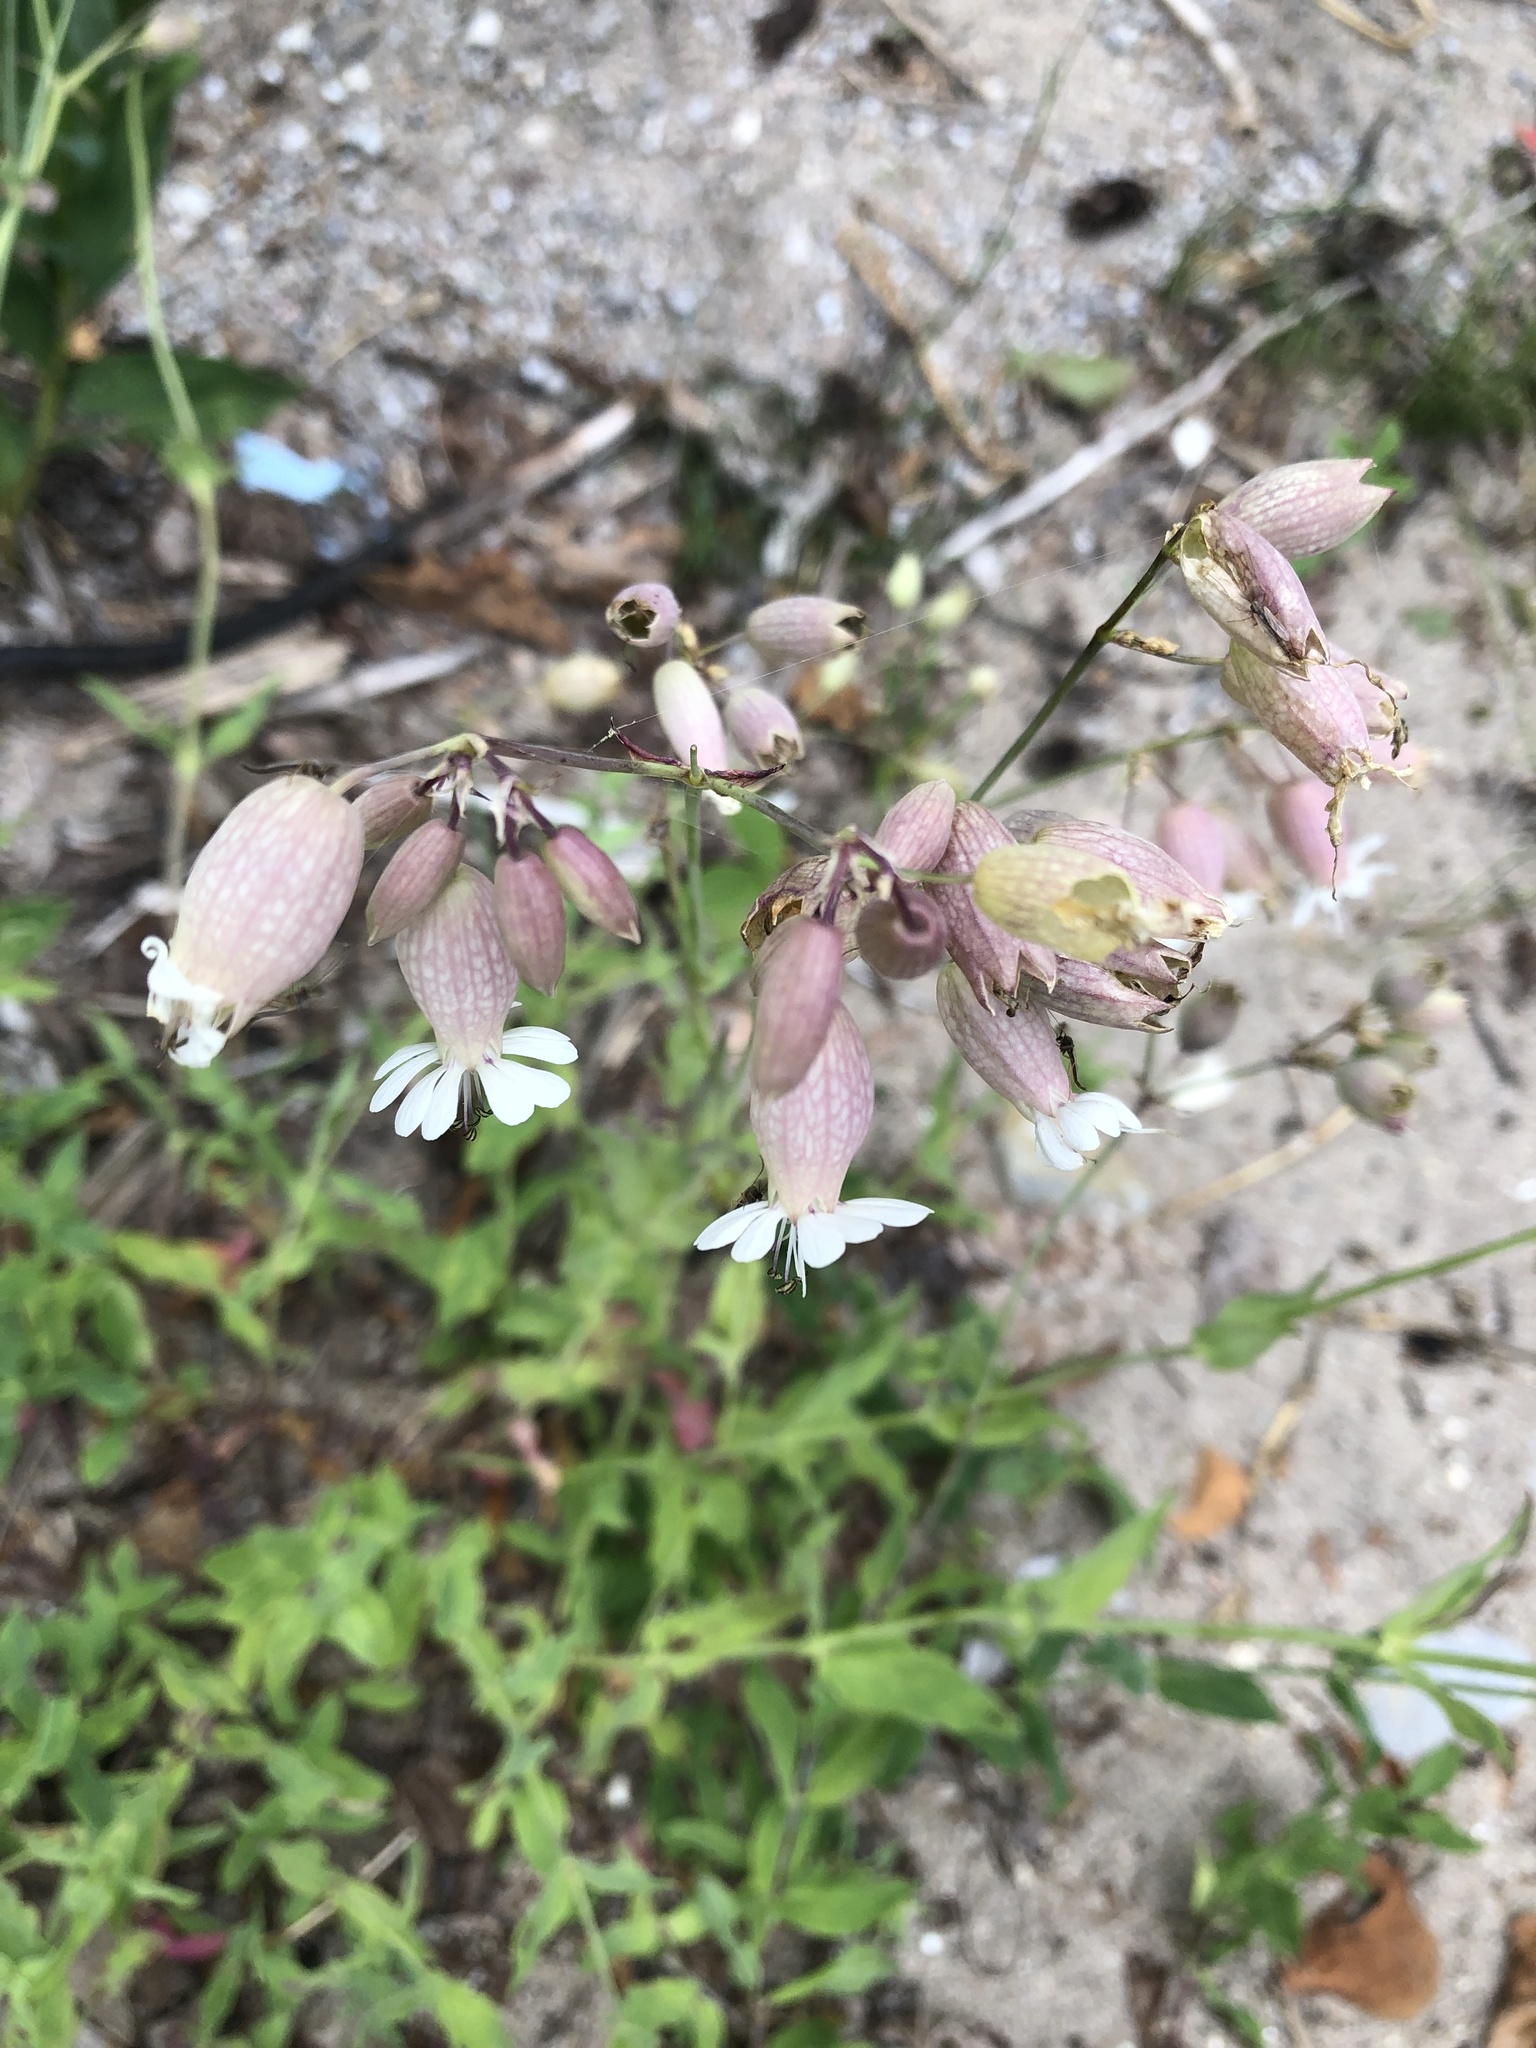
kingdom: Plantae
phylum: Tracheophyta
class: Magnoliopsida
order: Caryophyllales
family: Caryophyllaceae
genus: Silene
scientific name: Silene vulgaris
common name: Bladder campion
